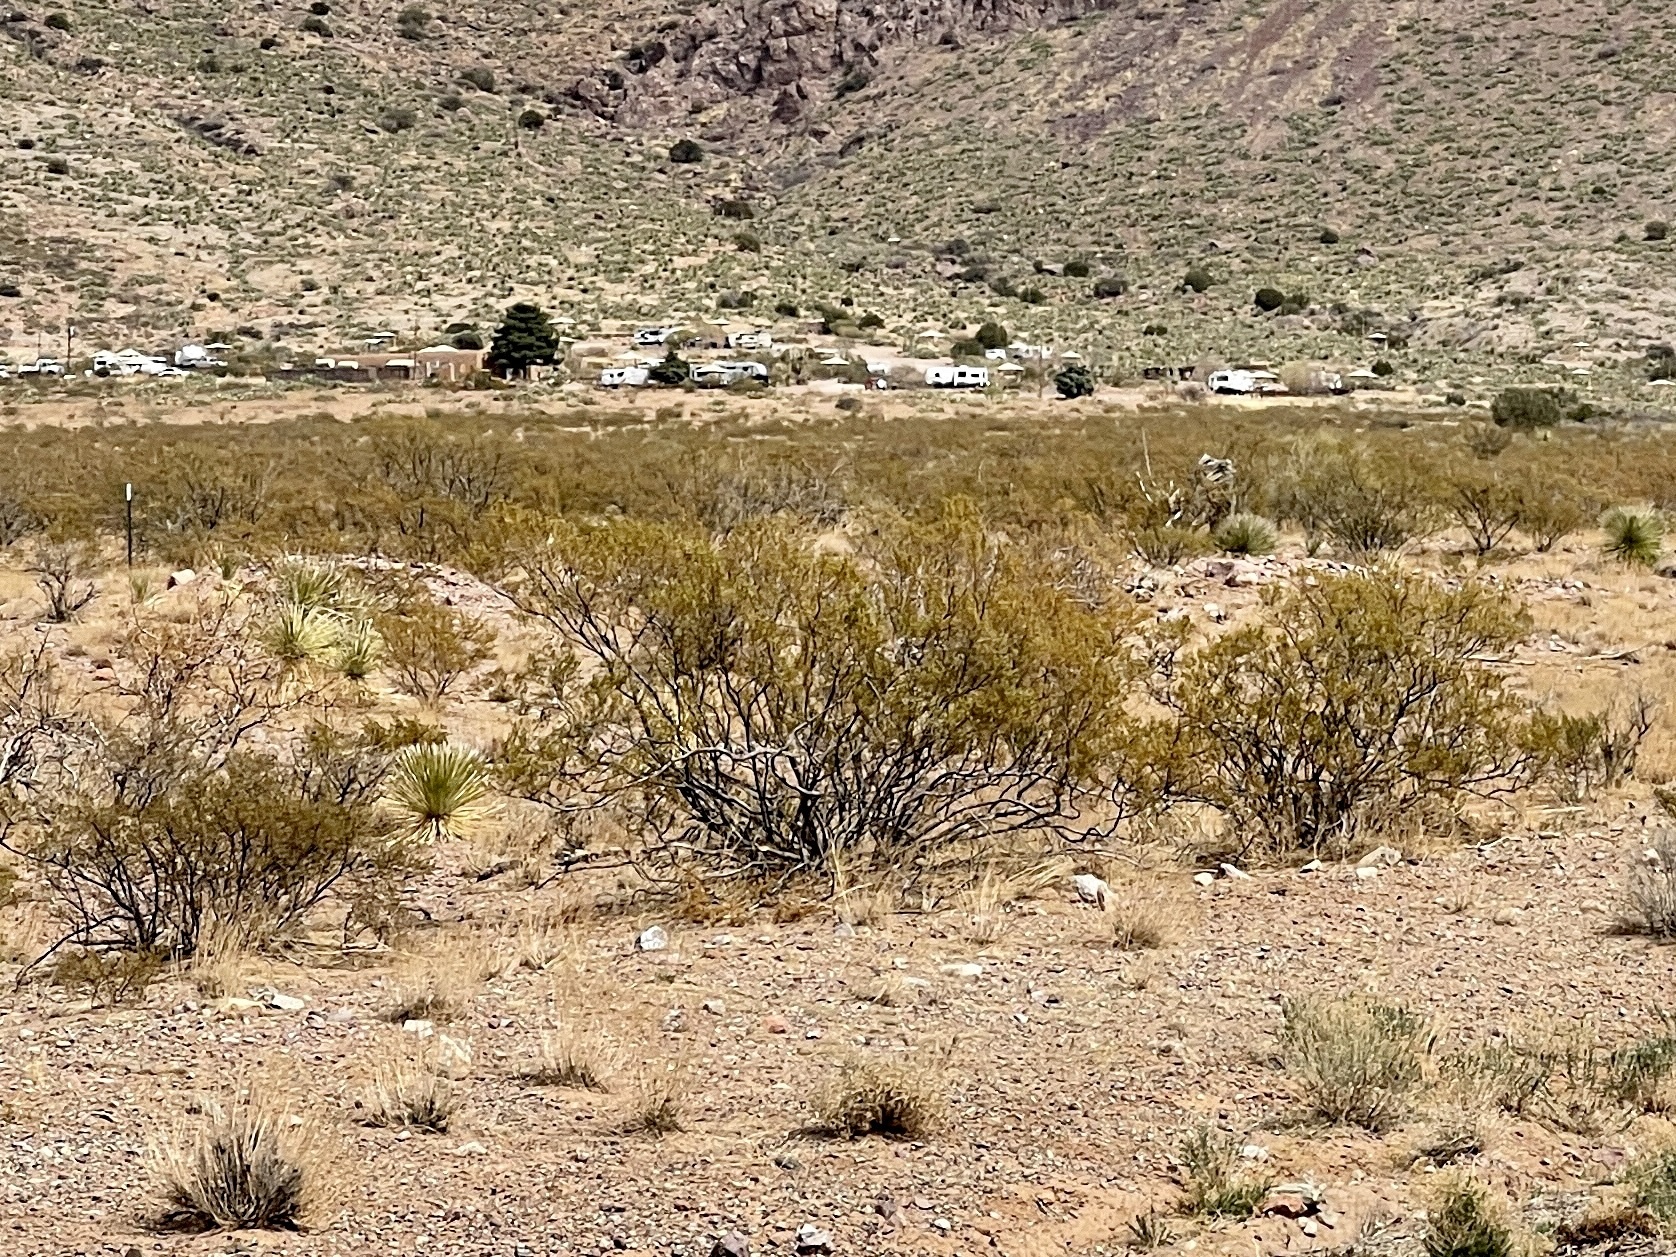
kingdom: Plantae
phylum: Tracheophyta
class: Magnoliopsida
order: Zygophyllales
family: Zygophyllaceae
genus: Larrea
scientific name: Larrea tridentata
